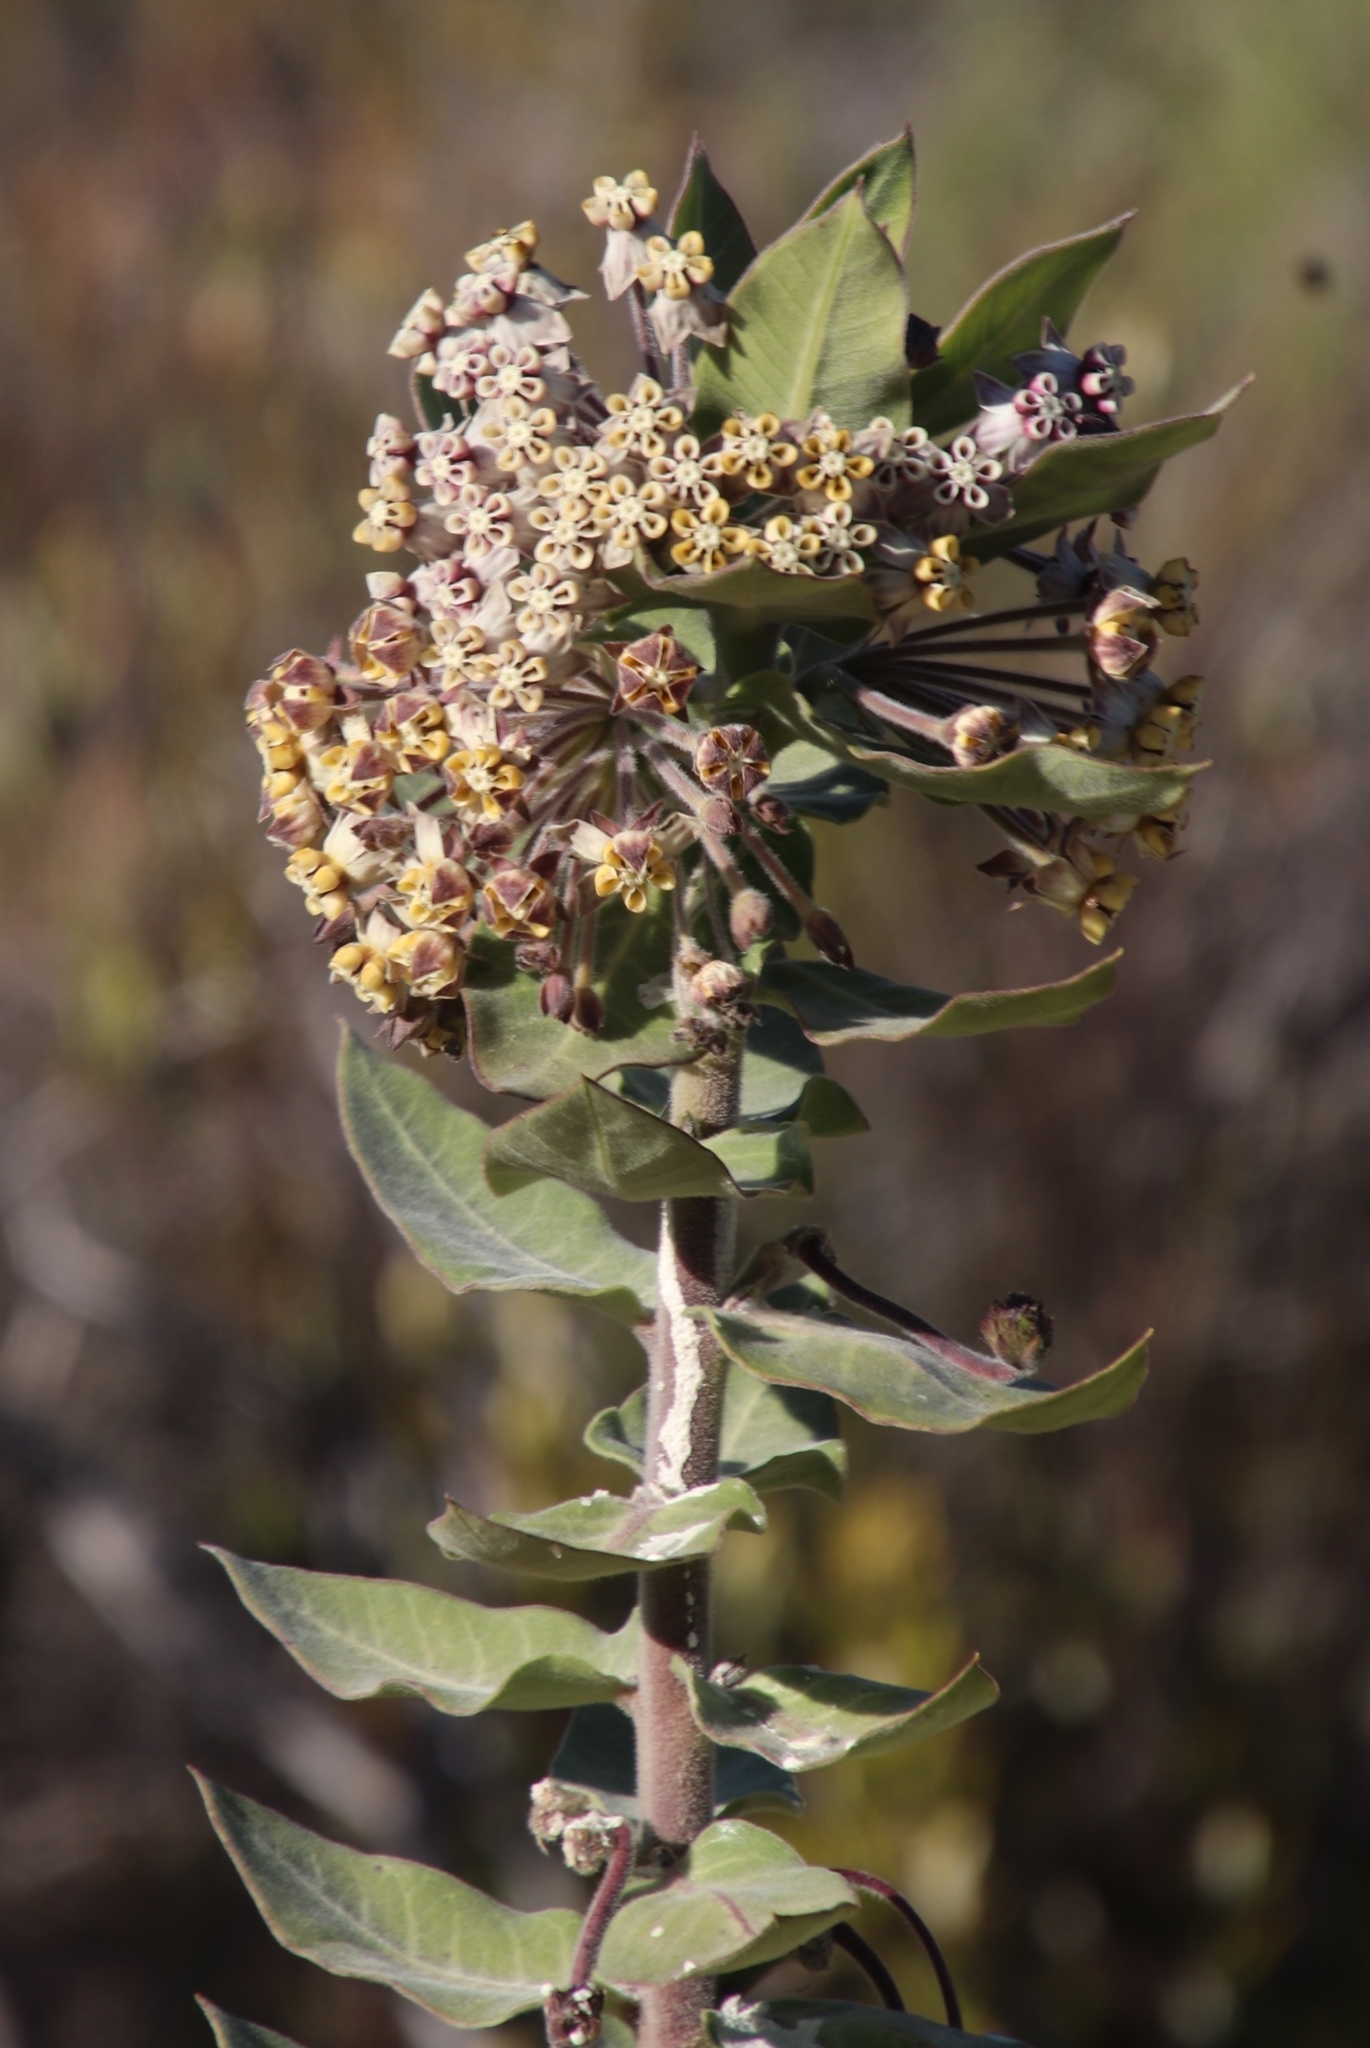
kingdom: Plantae
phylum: Tracheophyta
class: Magnoliopsida
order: Gentianales
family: Apocynaceae
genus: Gomphocarpus
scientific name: Gomphocarpus cancellatus
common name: Wild cotton
